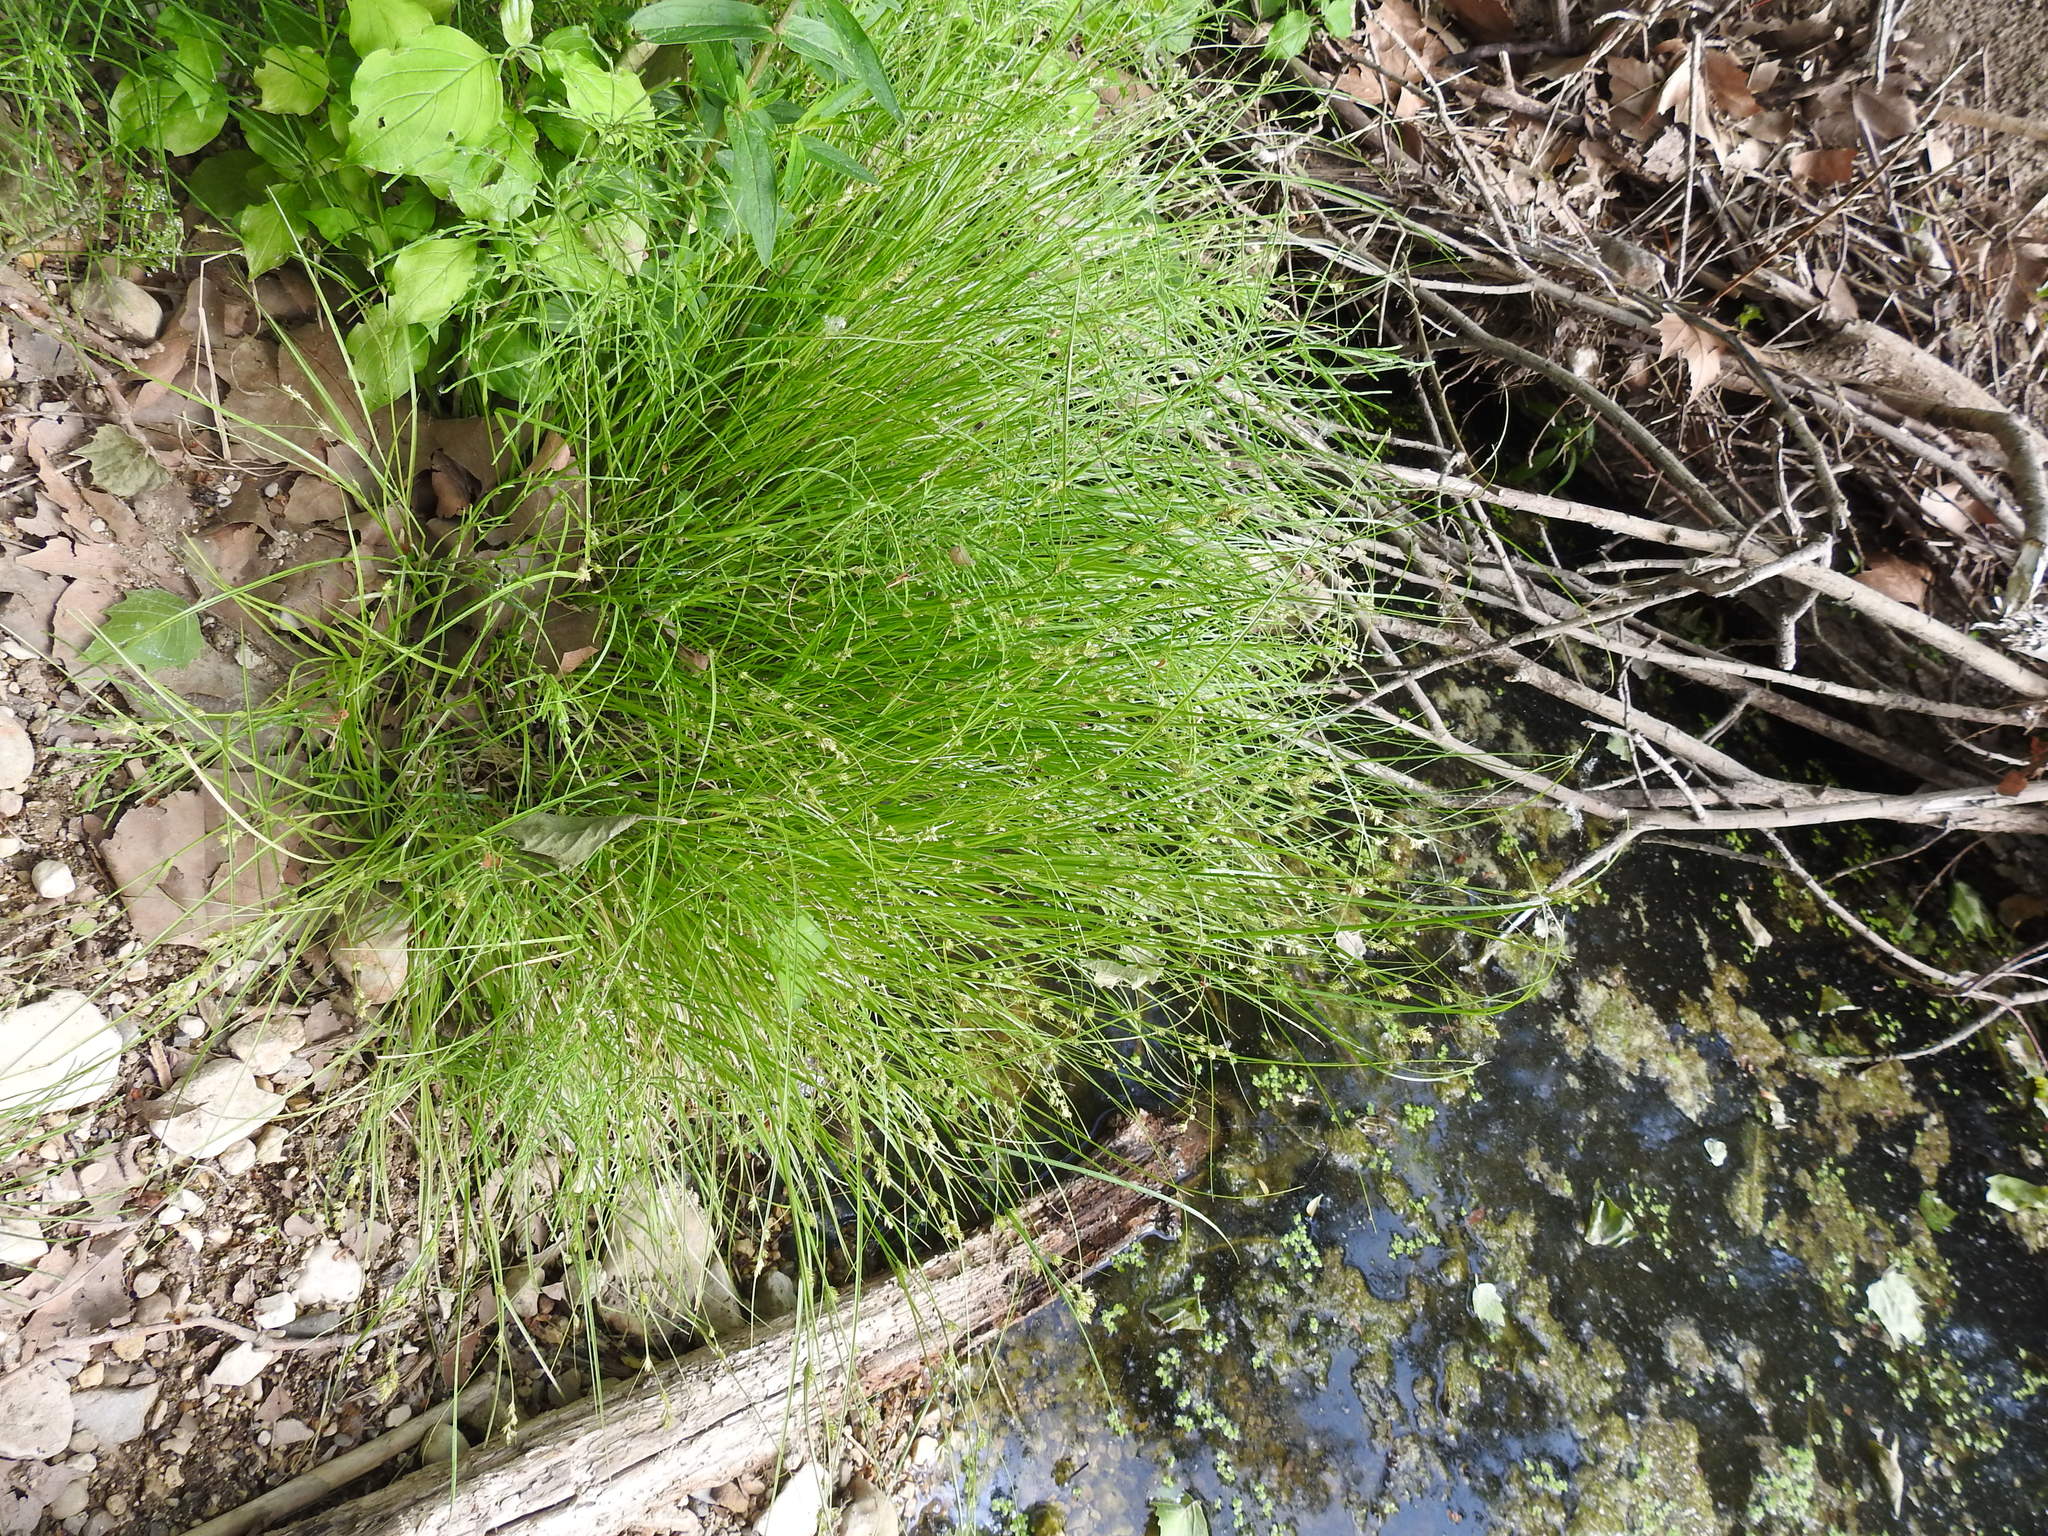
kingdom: Plantae
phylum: Tracheophyta
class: Liliopsida
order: Poales
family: Cyperaceae
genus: Carex
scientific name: Carex remota
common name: Remote sedge
